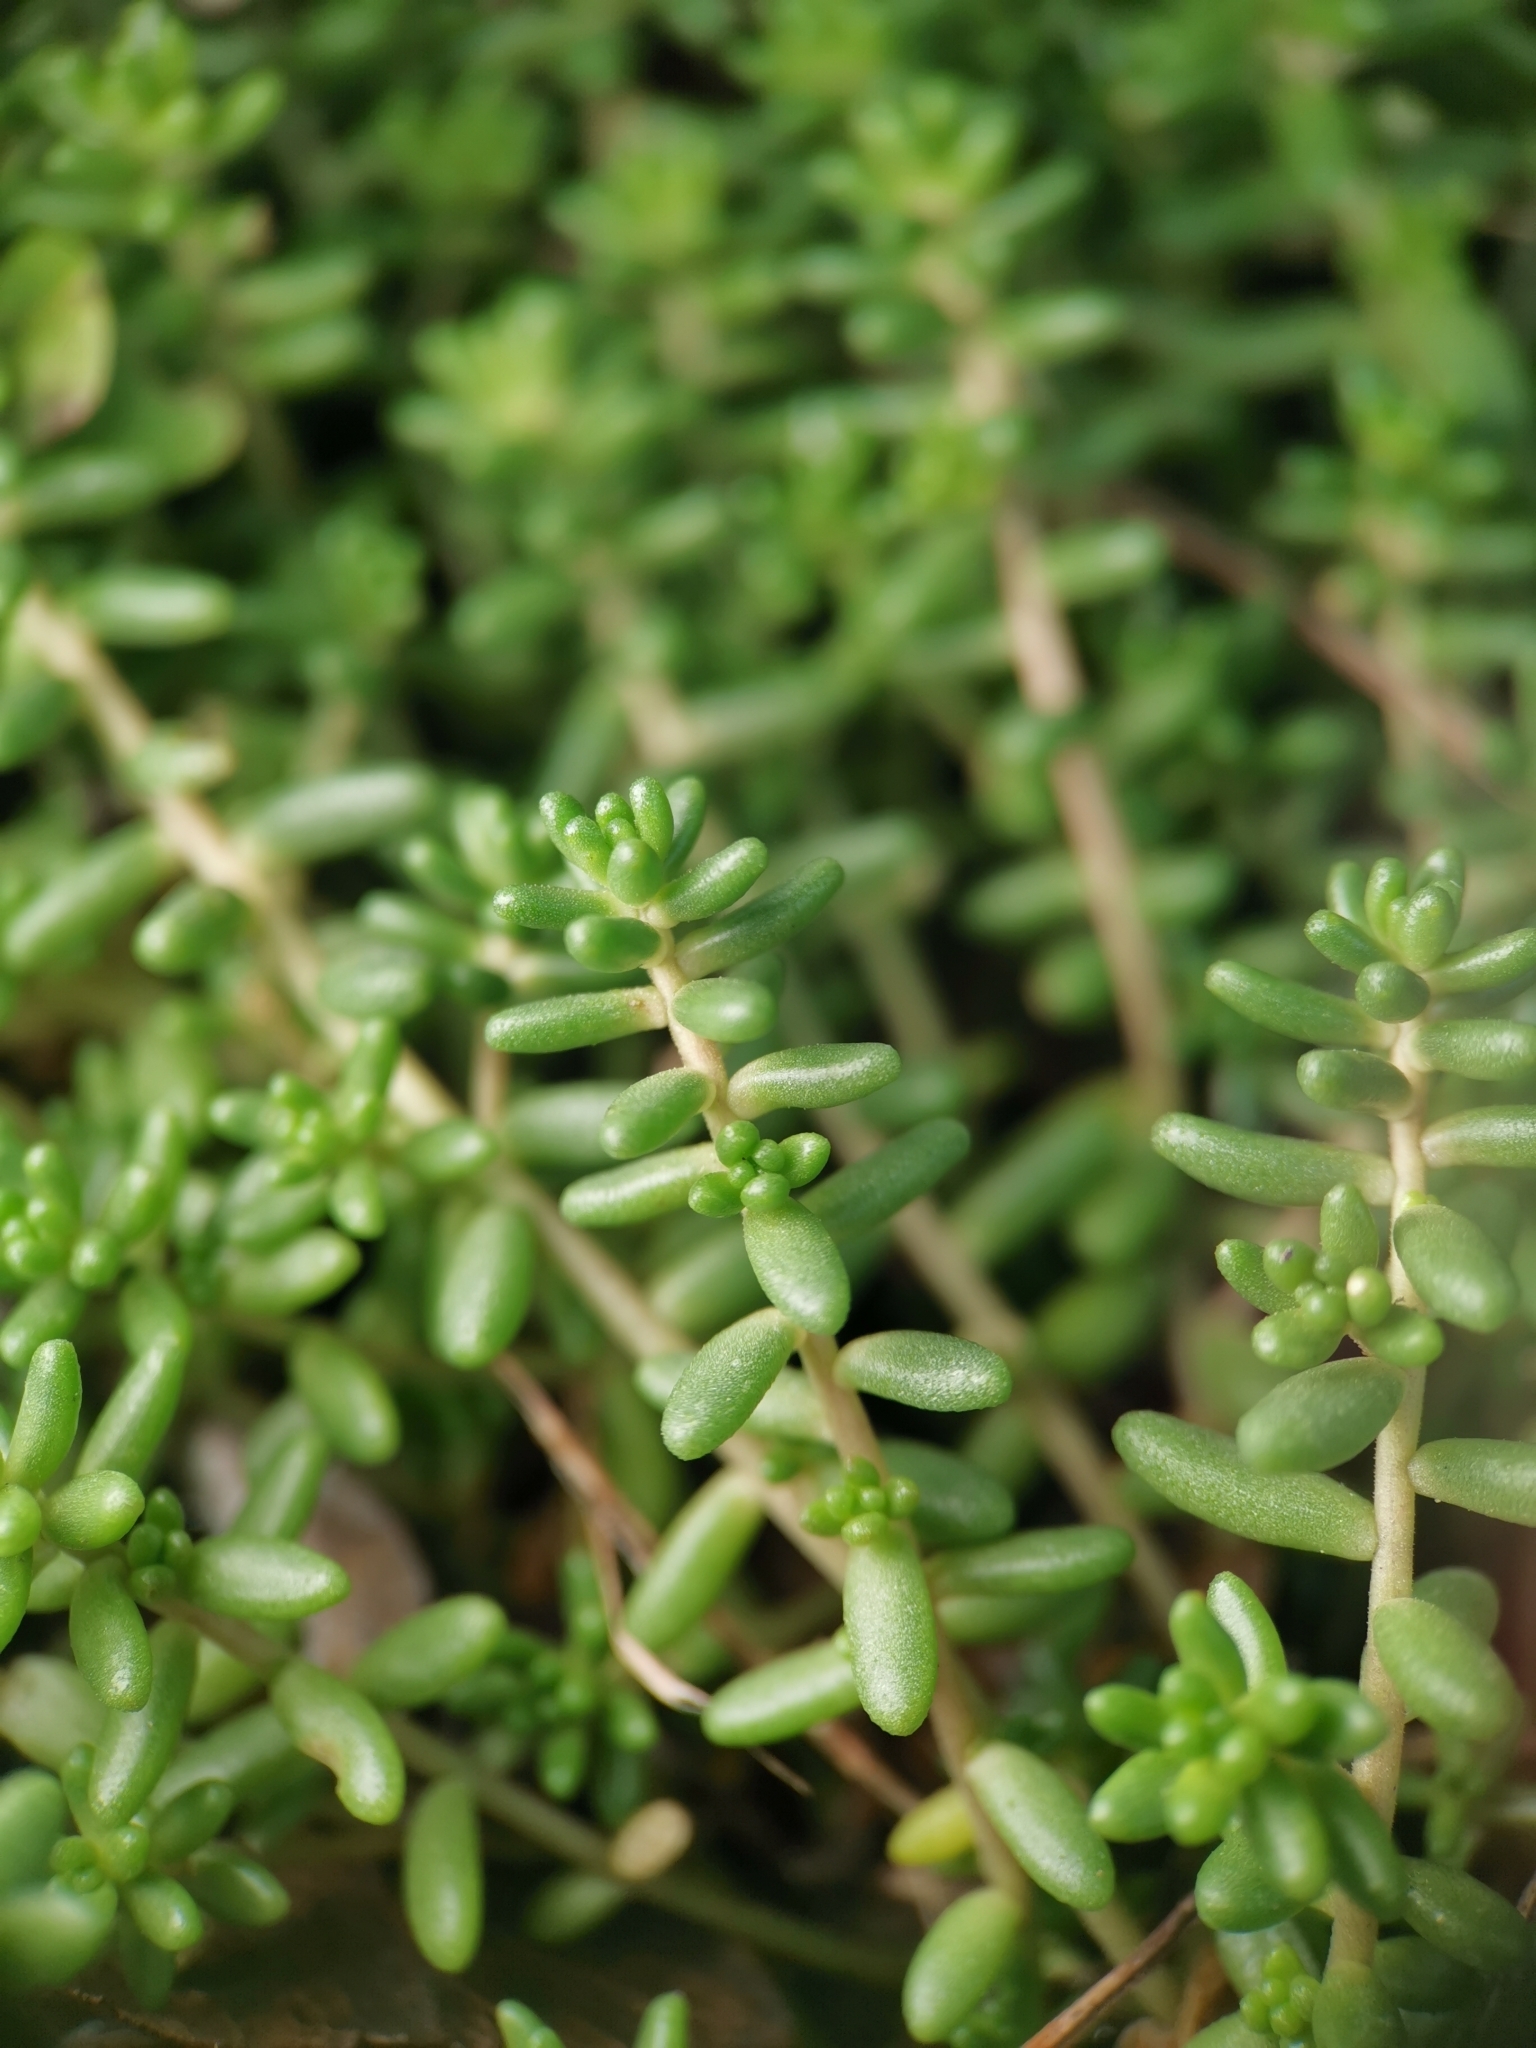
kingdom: Plantae
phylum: Tracheophyta
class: Magnoliopsida
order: Saxifragales
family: Crassulaceae
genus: Sedum
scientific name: Sedum album
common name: White stonecrop
